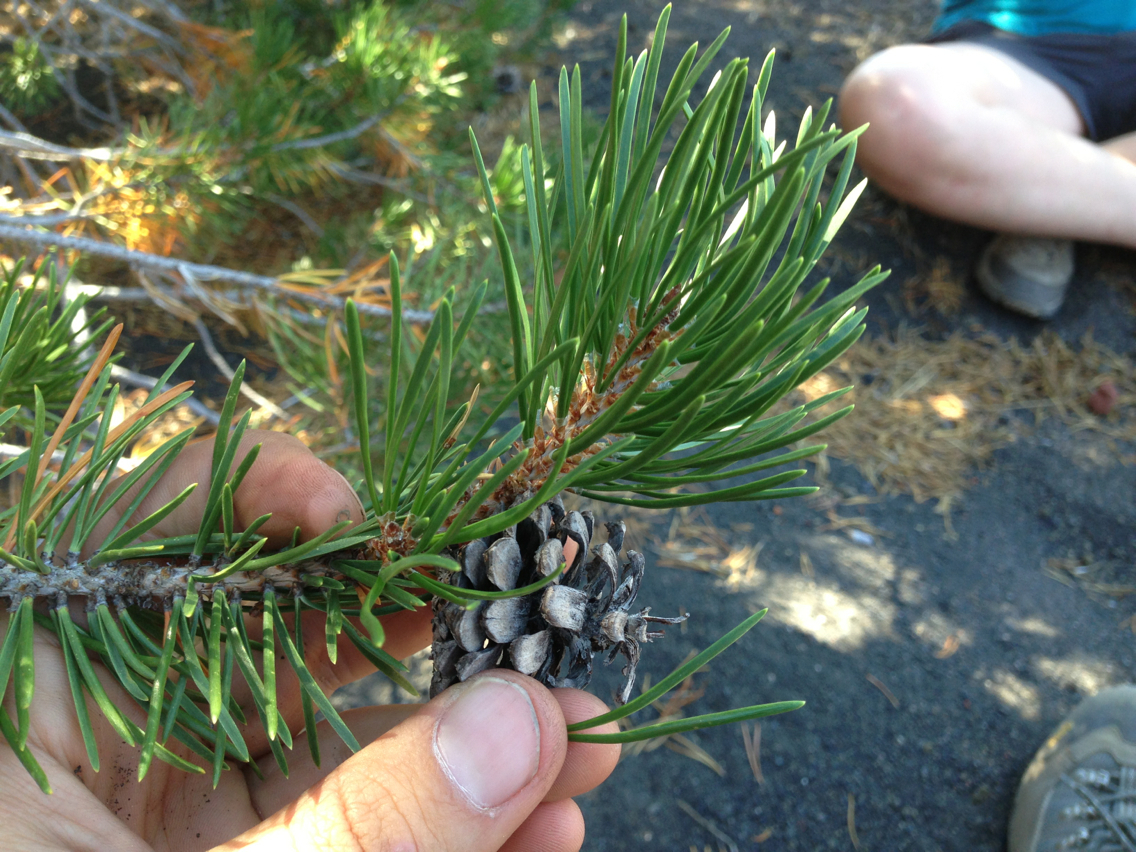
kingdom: Plantae
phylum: Tracheophyta
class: Pinopsida
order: Pinales
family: Pinaceae
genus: Pinus
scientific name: Pinus contorta
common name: Lodgepole pine
